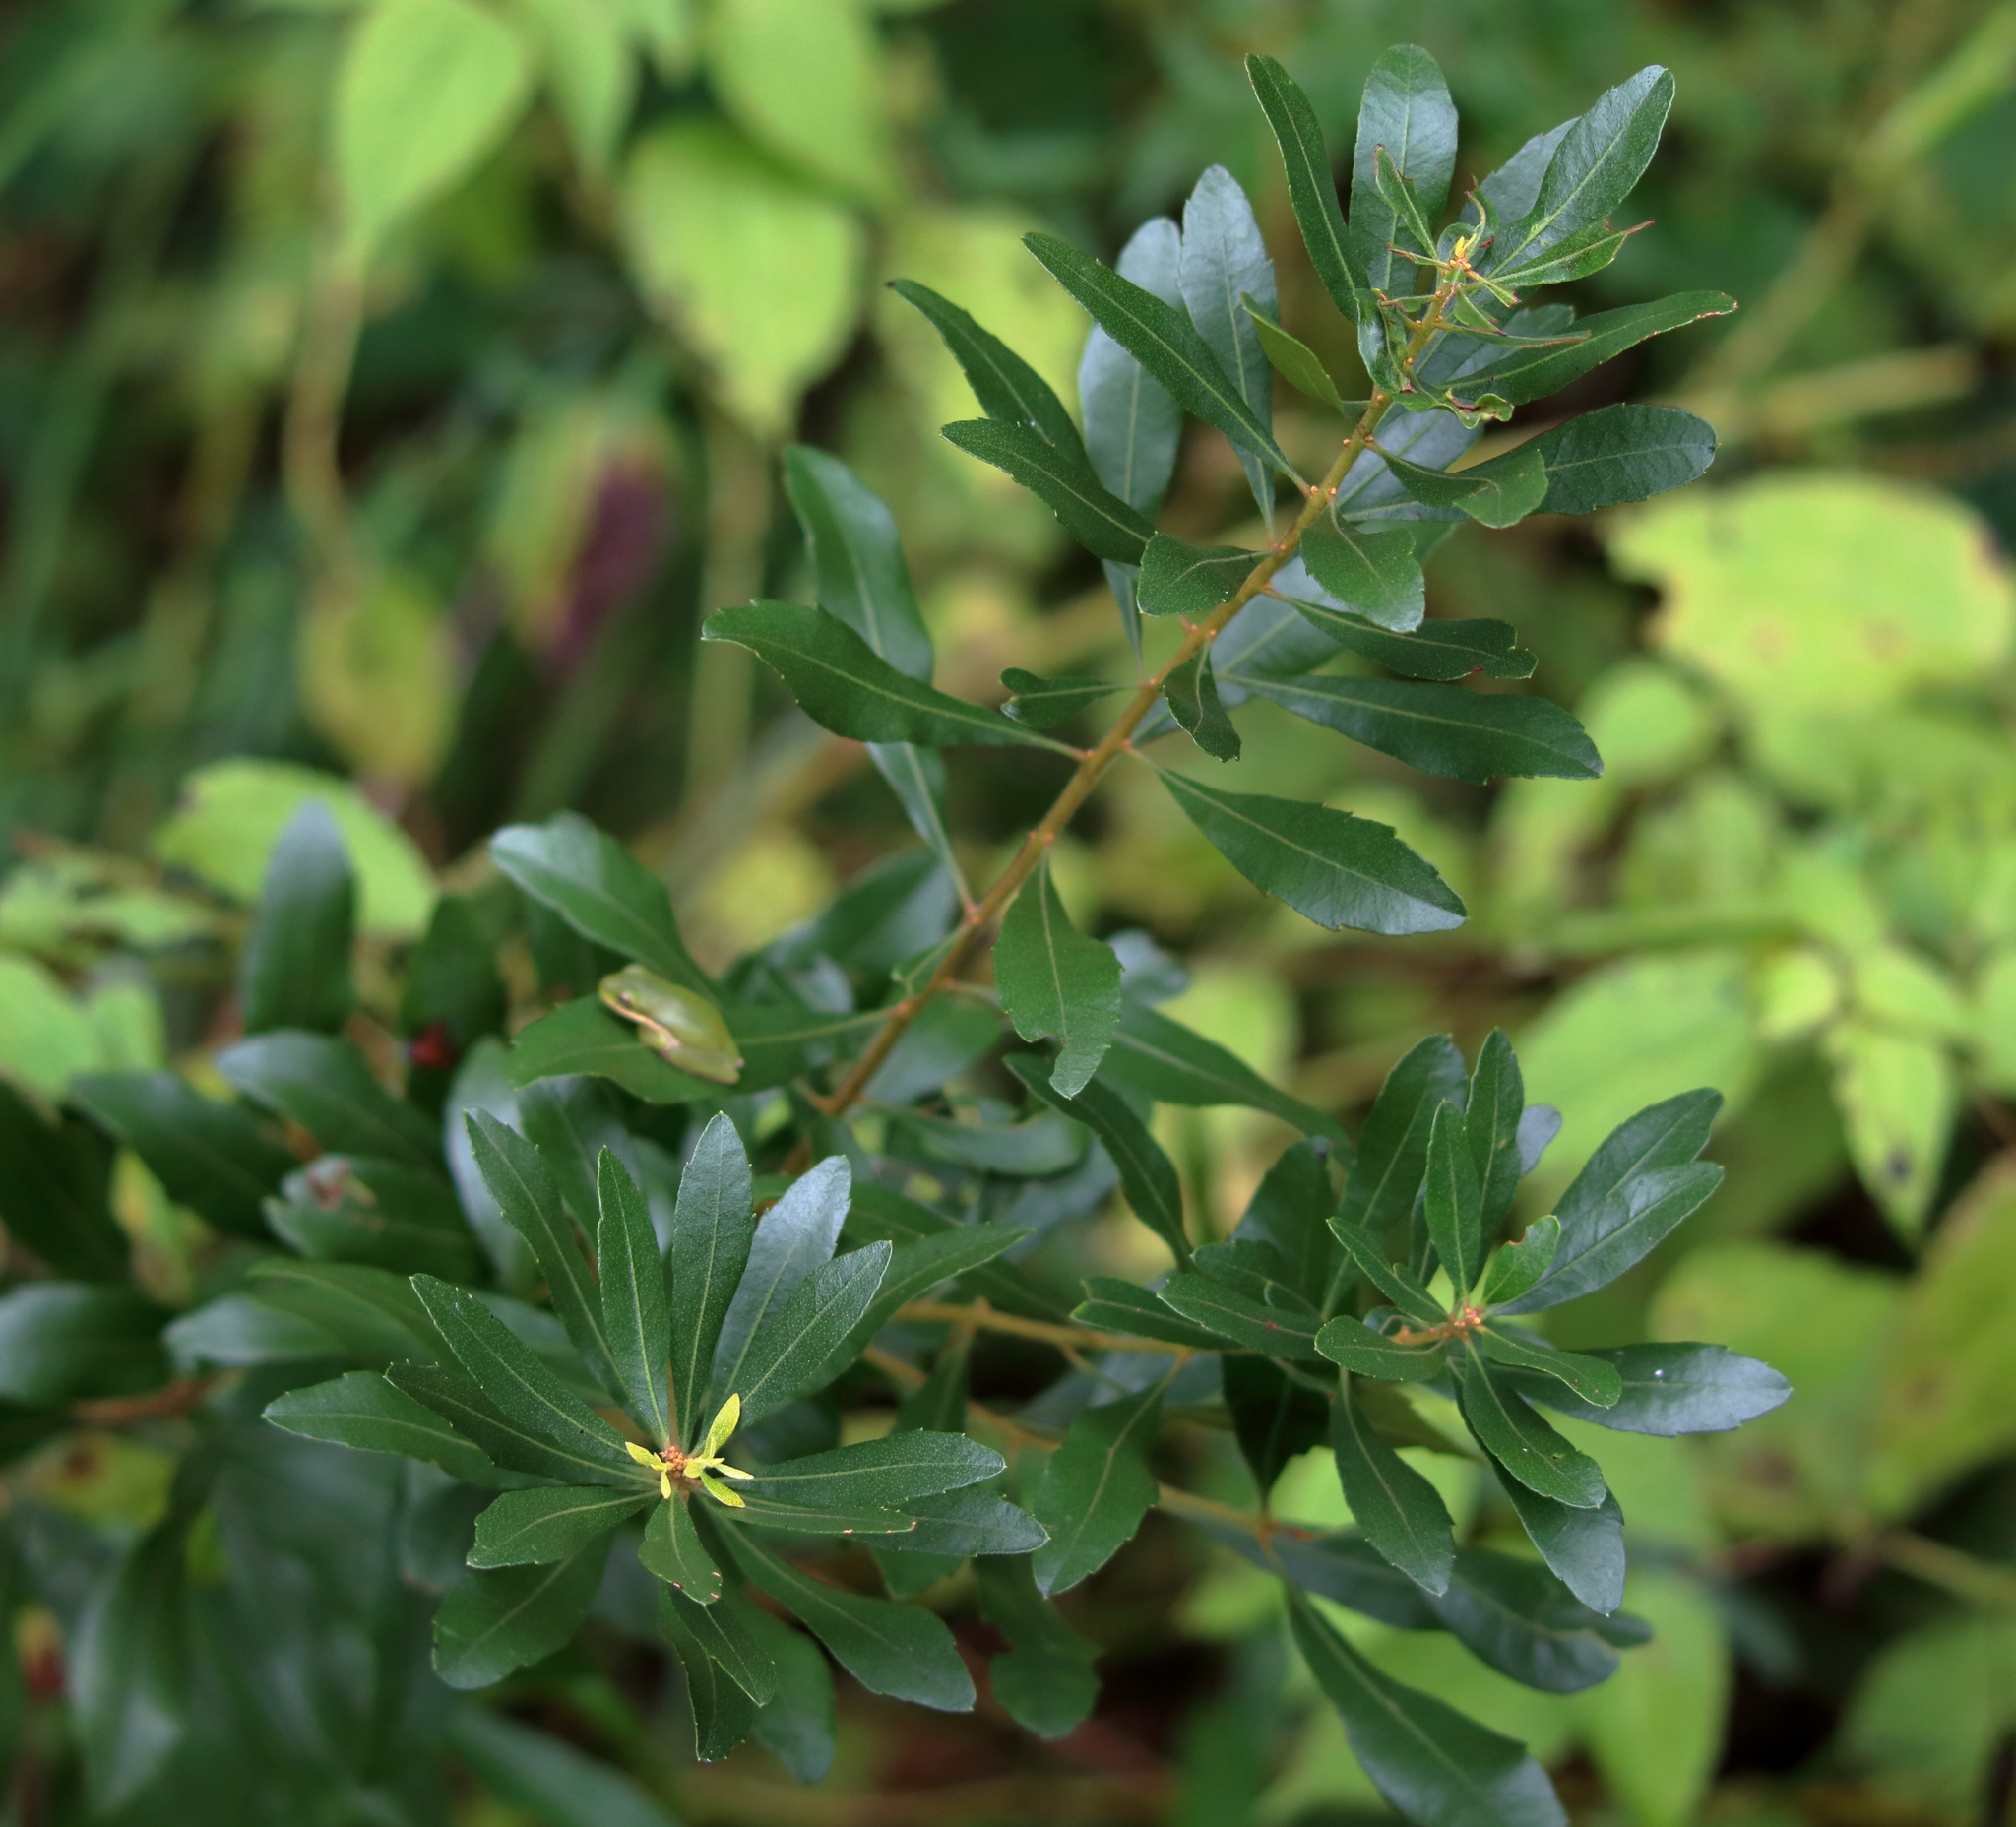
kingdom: Plantae
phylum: Tracheophyta
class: Magnoliopsida
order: Fagales
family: Myricaceae
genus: Morella
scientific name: Morella cerifera
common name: Wax myrtle
